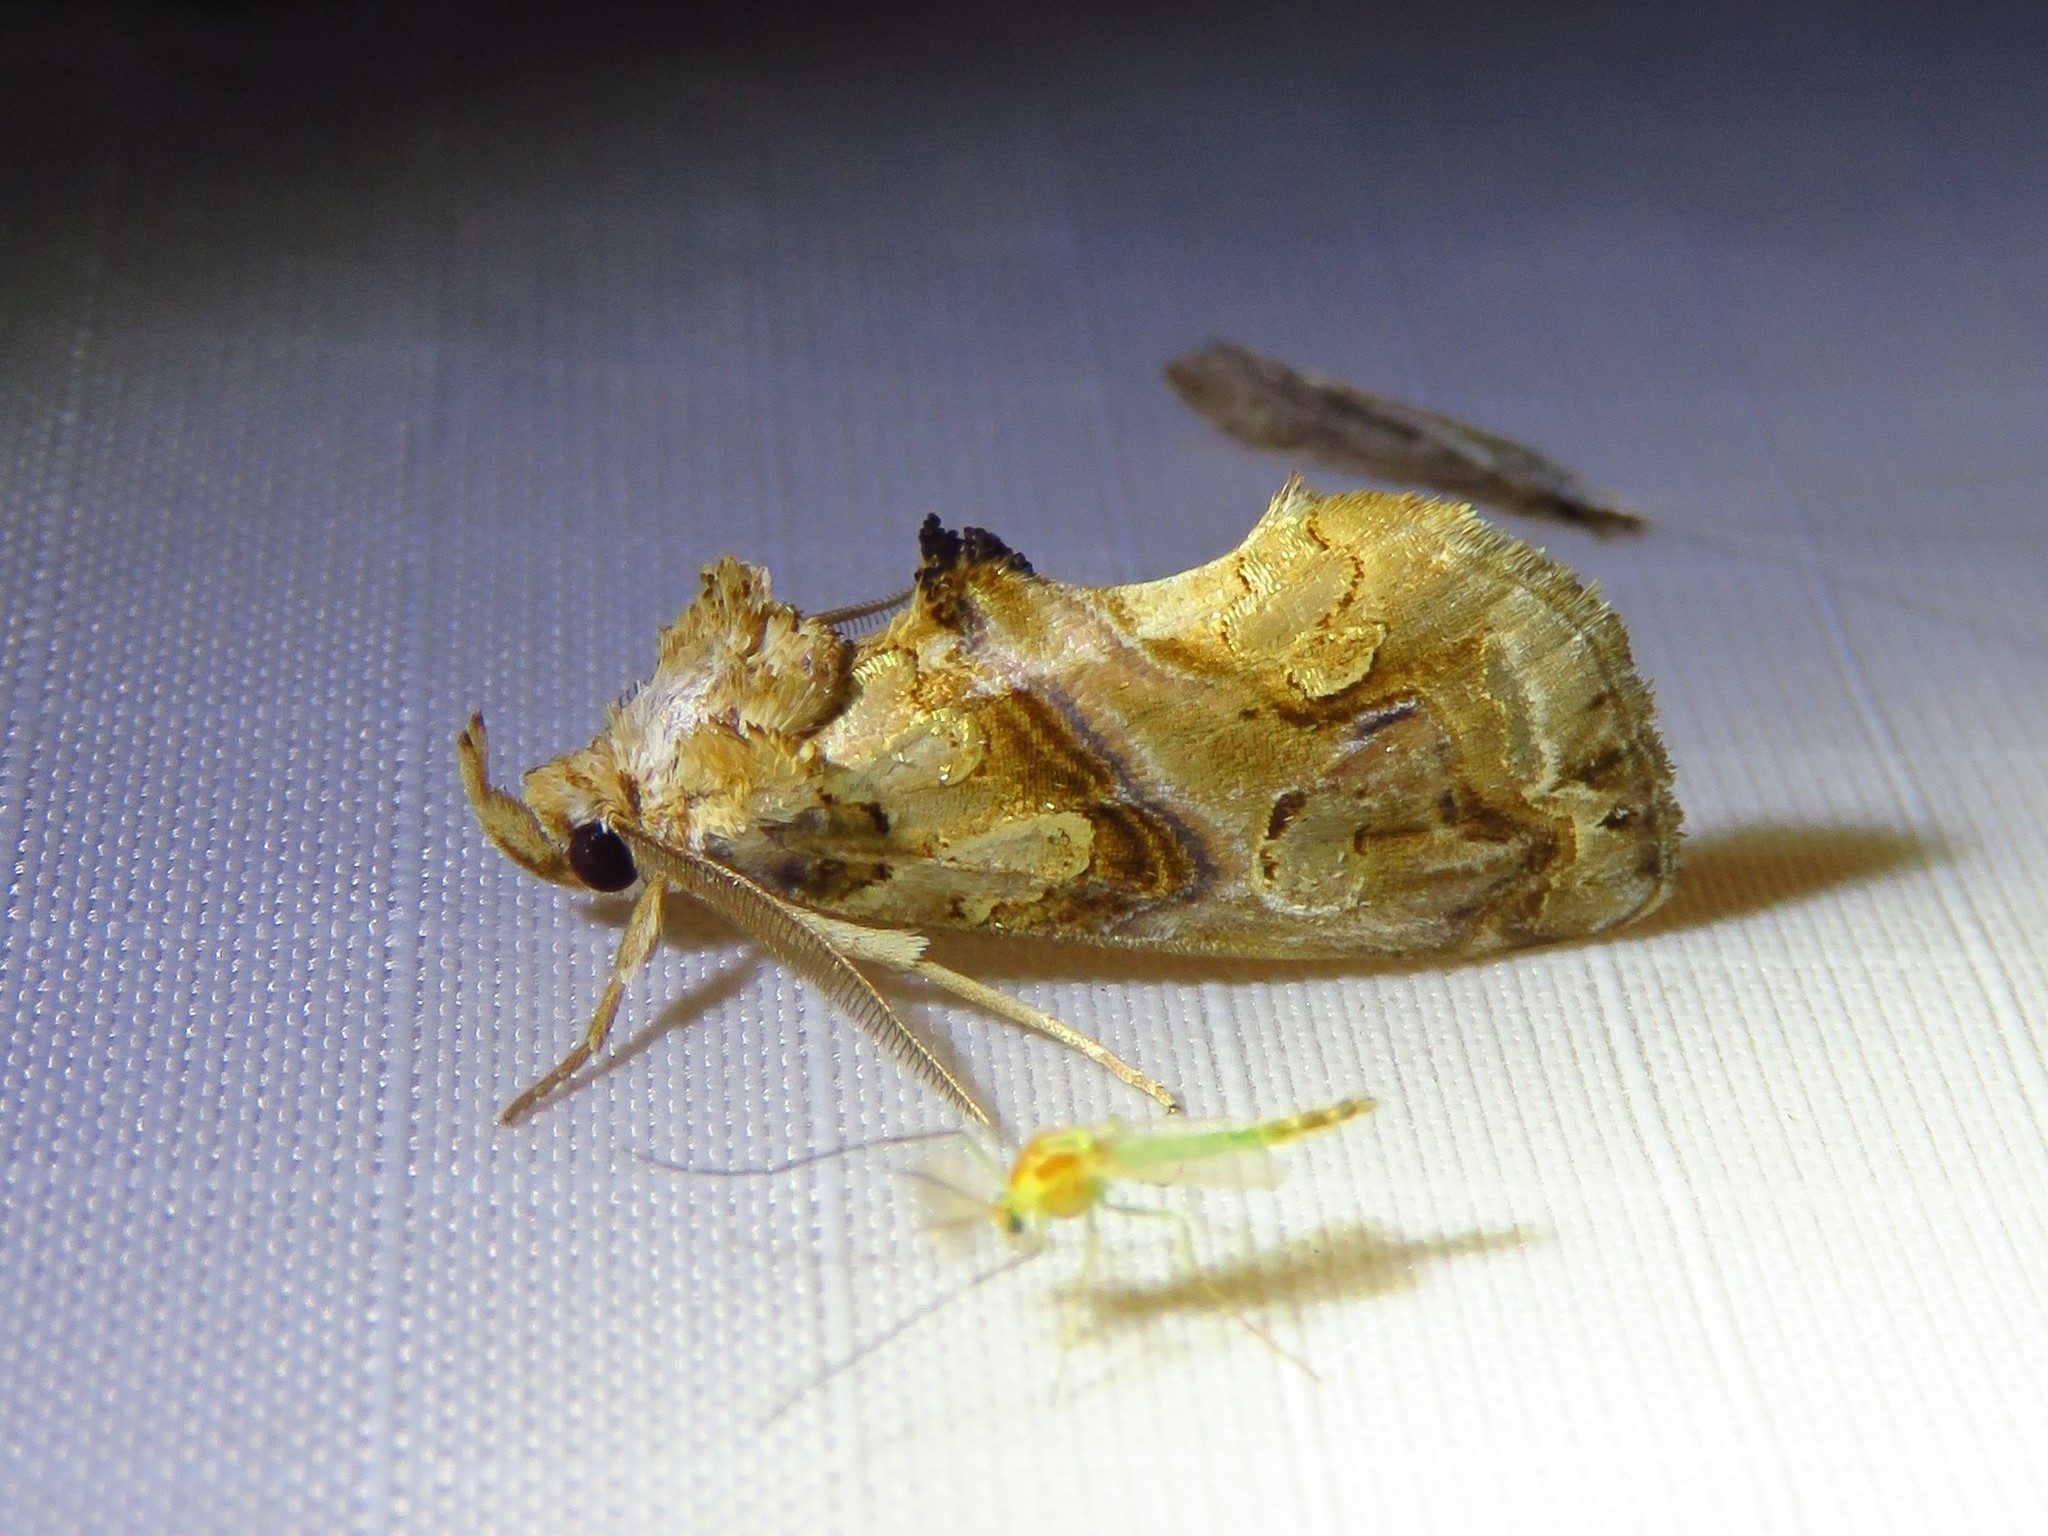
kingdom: Animalia
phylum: Arthropoda
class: Insecta
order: Lepidoptera
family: Erebidae
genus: Plusiodonta
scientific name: Plusiodonta compressipalpis
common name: Moonseed moth
